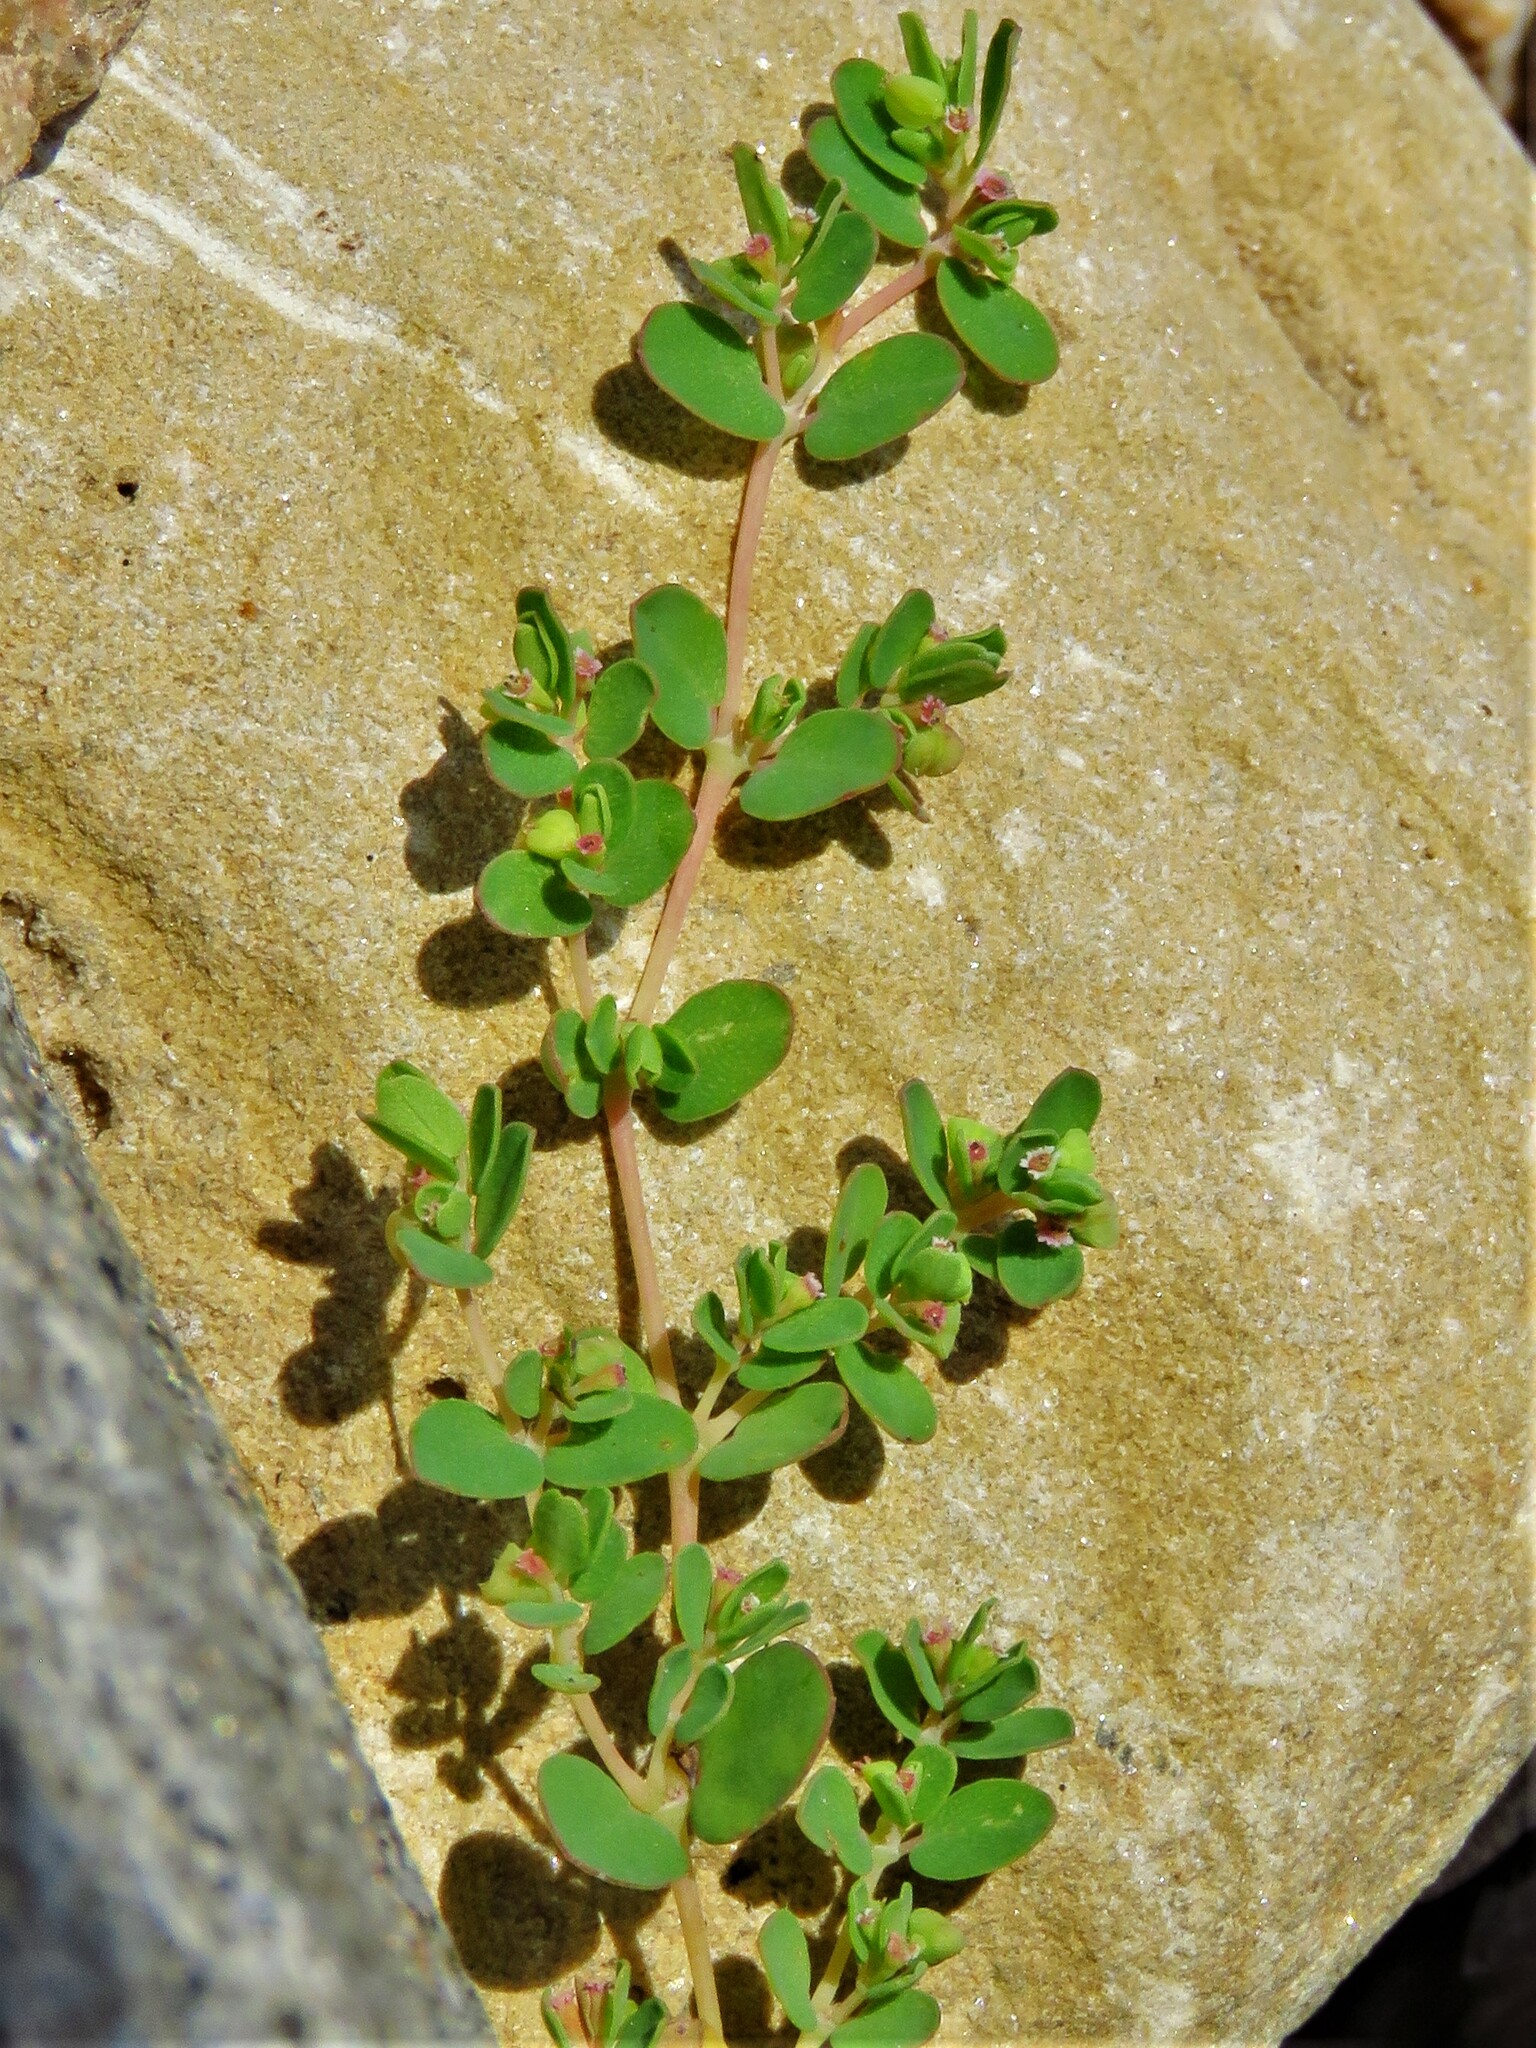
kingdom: Plantae
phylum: Tracheophyta
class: Magnoliopsida
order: Malpighiales
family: Euphorbiaceae
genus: Euphorbia
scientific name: Euphorbia serpens
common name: Matted sandmat
